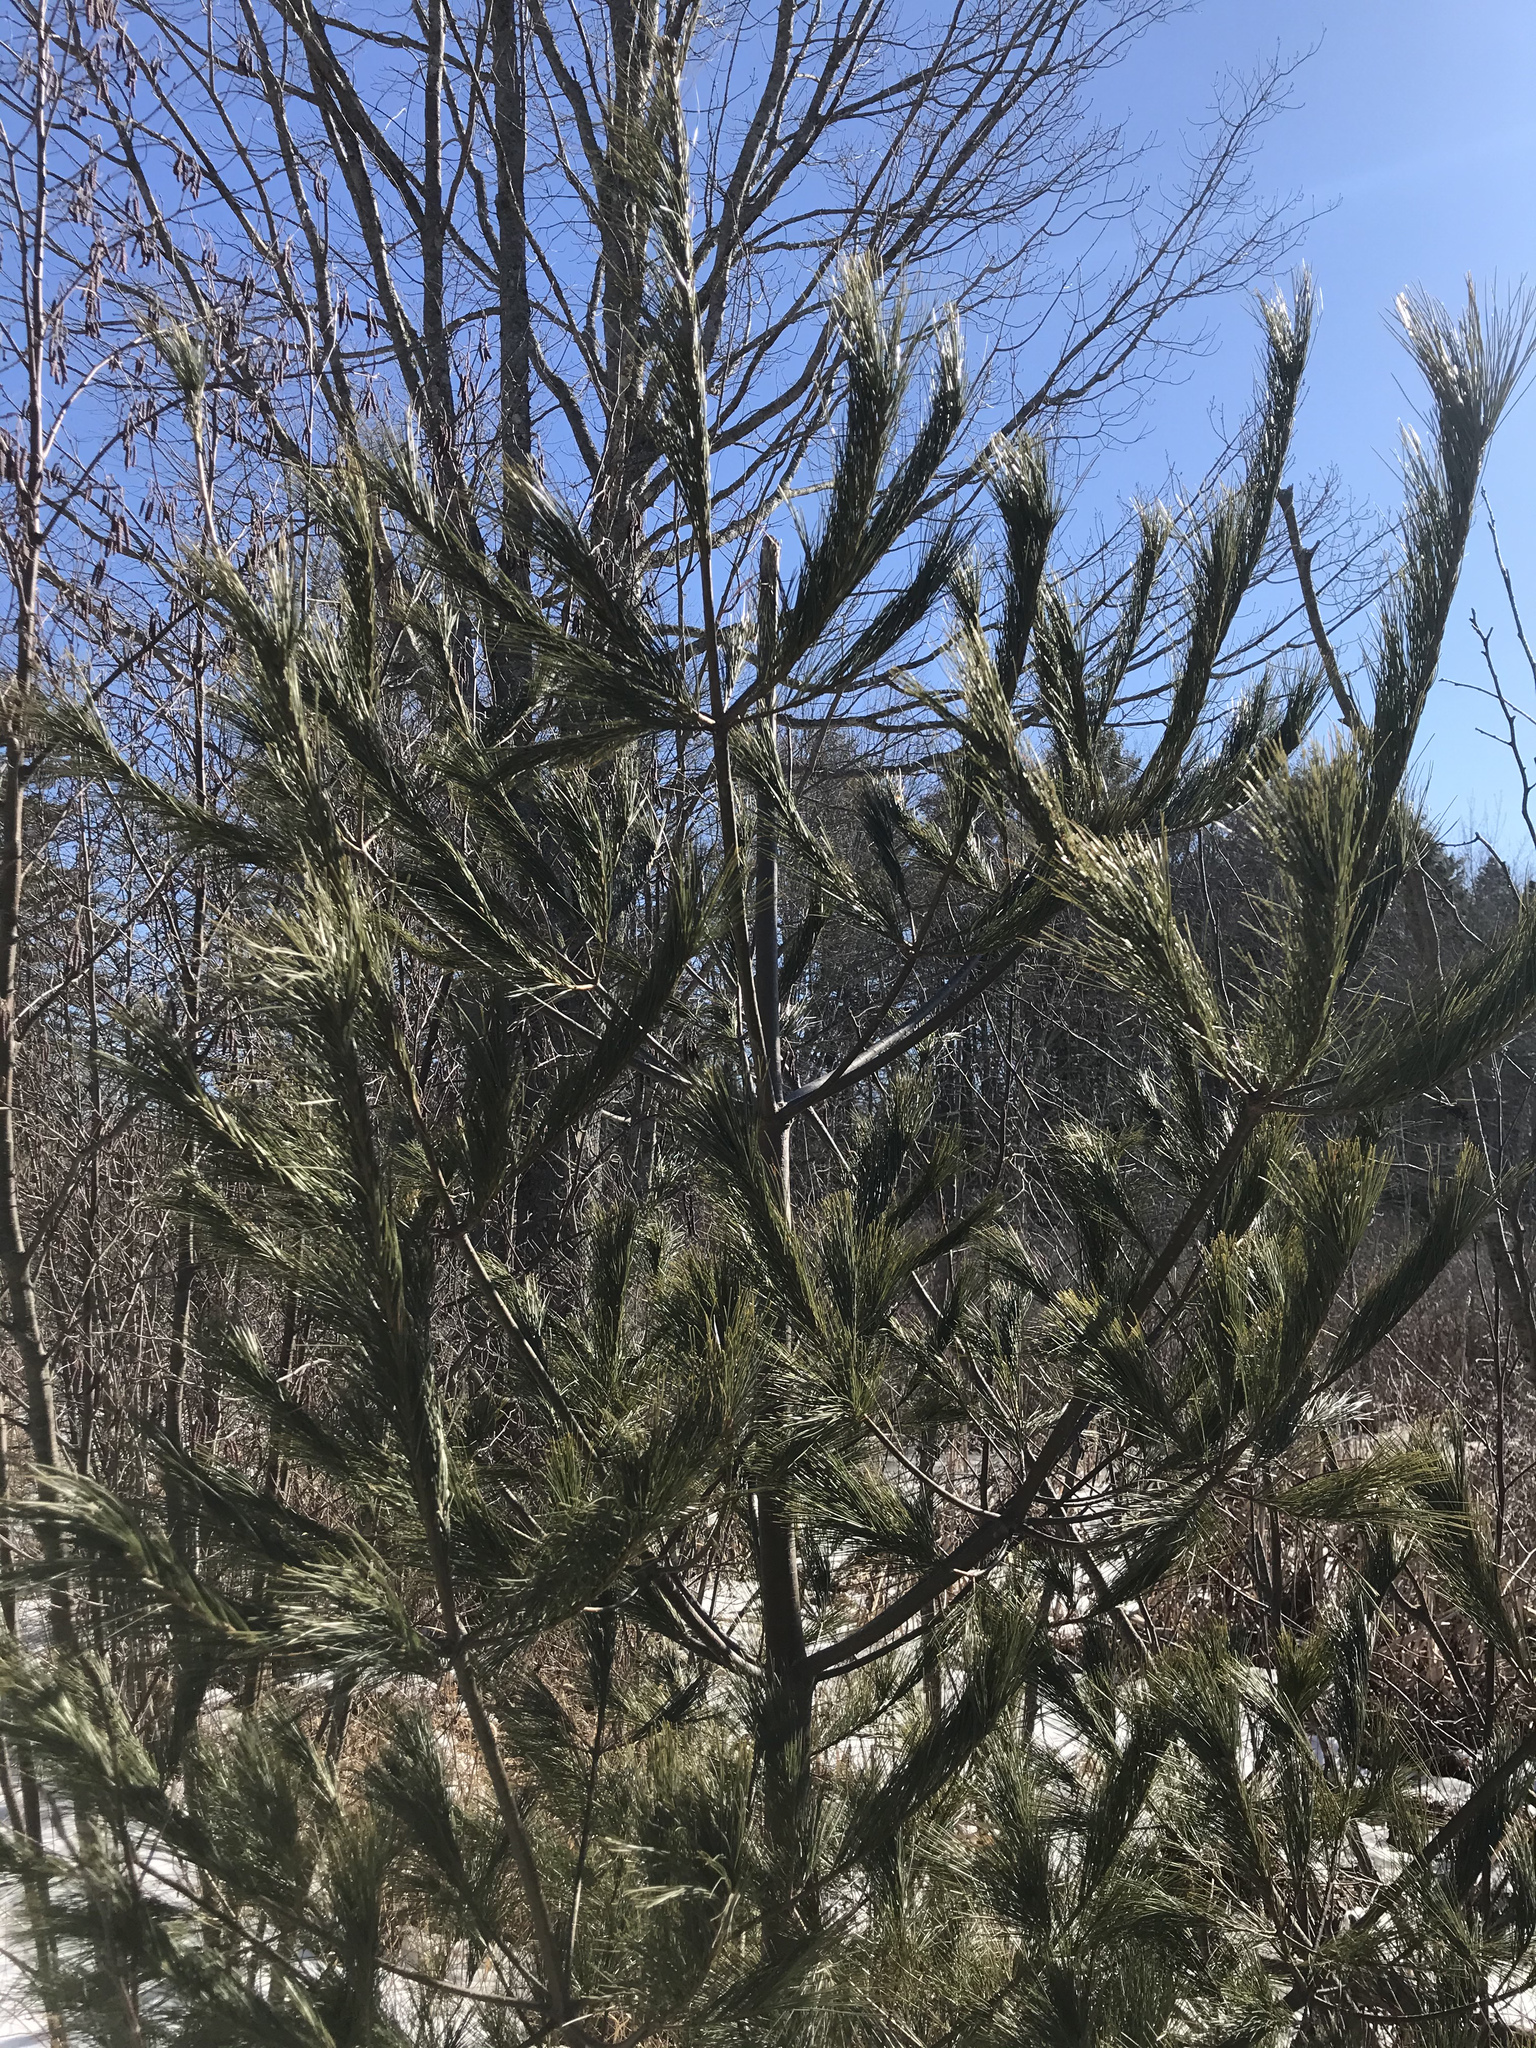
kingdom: Plantae
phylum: Tracheophyta
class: Pinopsida
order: Pinales
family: Pinaceae
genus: Pinus
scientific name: Pinus strobus
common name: Weymouth pine
